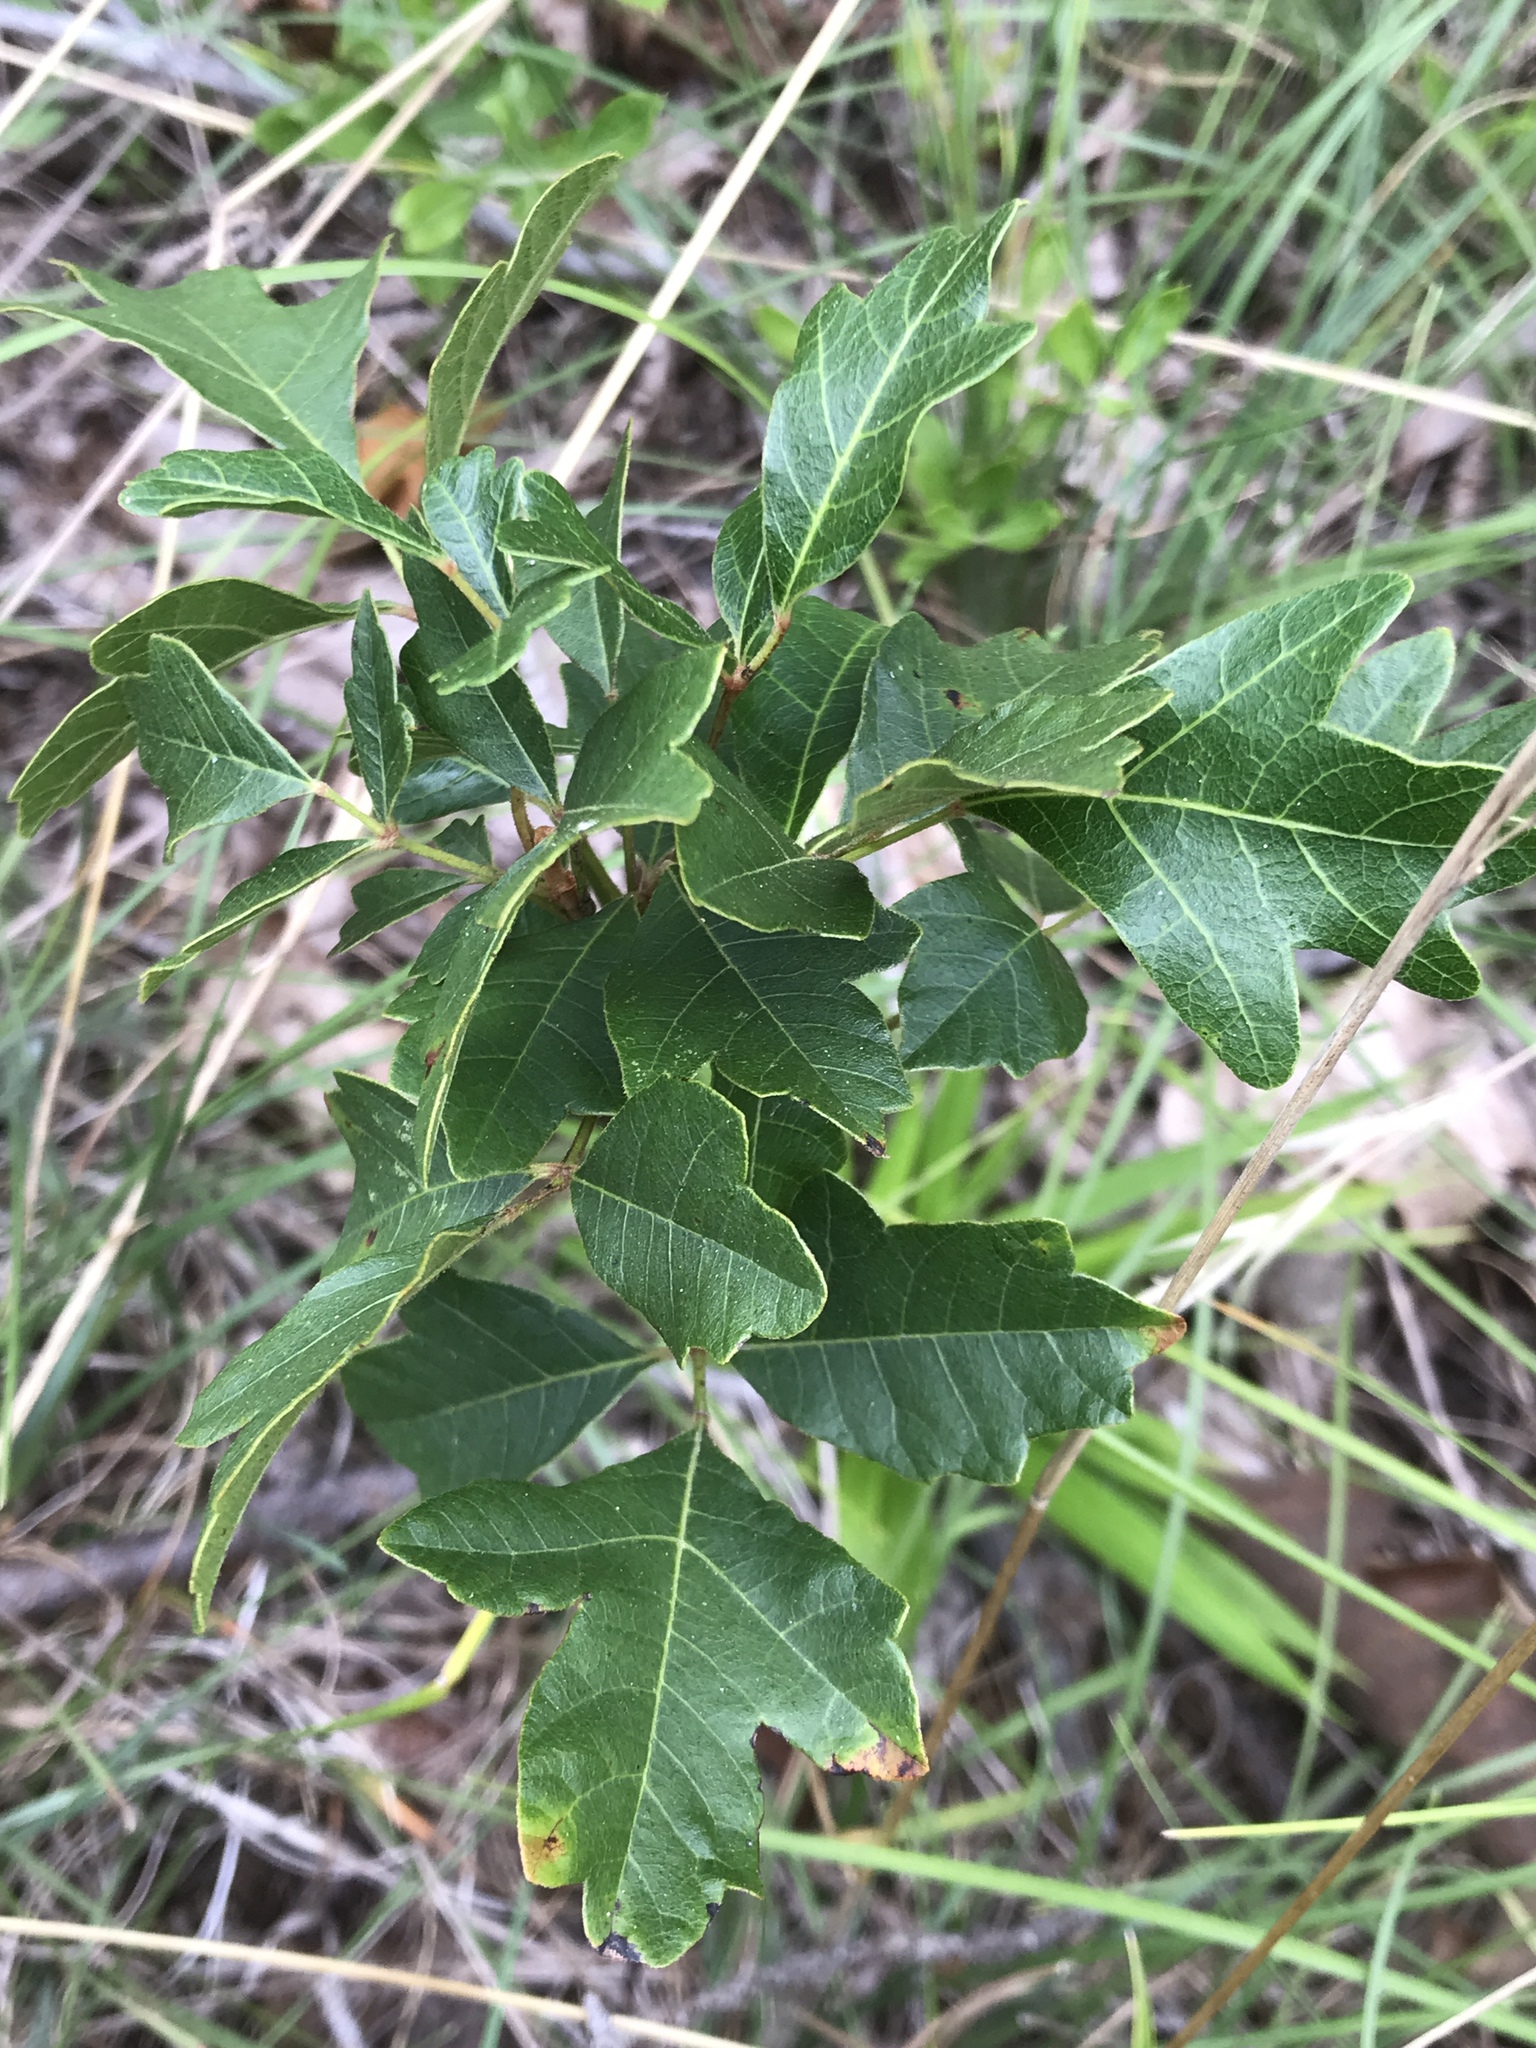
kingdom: Plantae
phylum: Tracheophyta
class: Magnoliopsida
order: Sapindales
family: Anacardiaceae
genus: Toxicodendron
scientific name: Toxicodendron pubescens
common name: Eastern poison-oak
